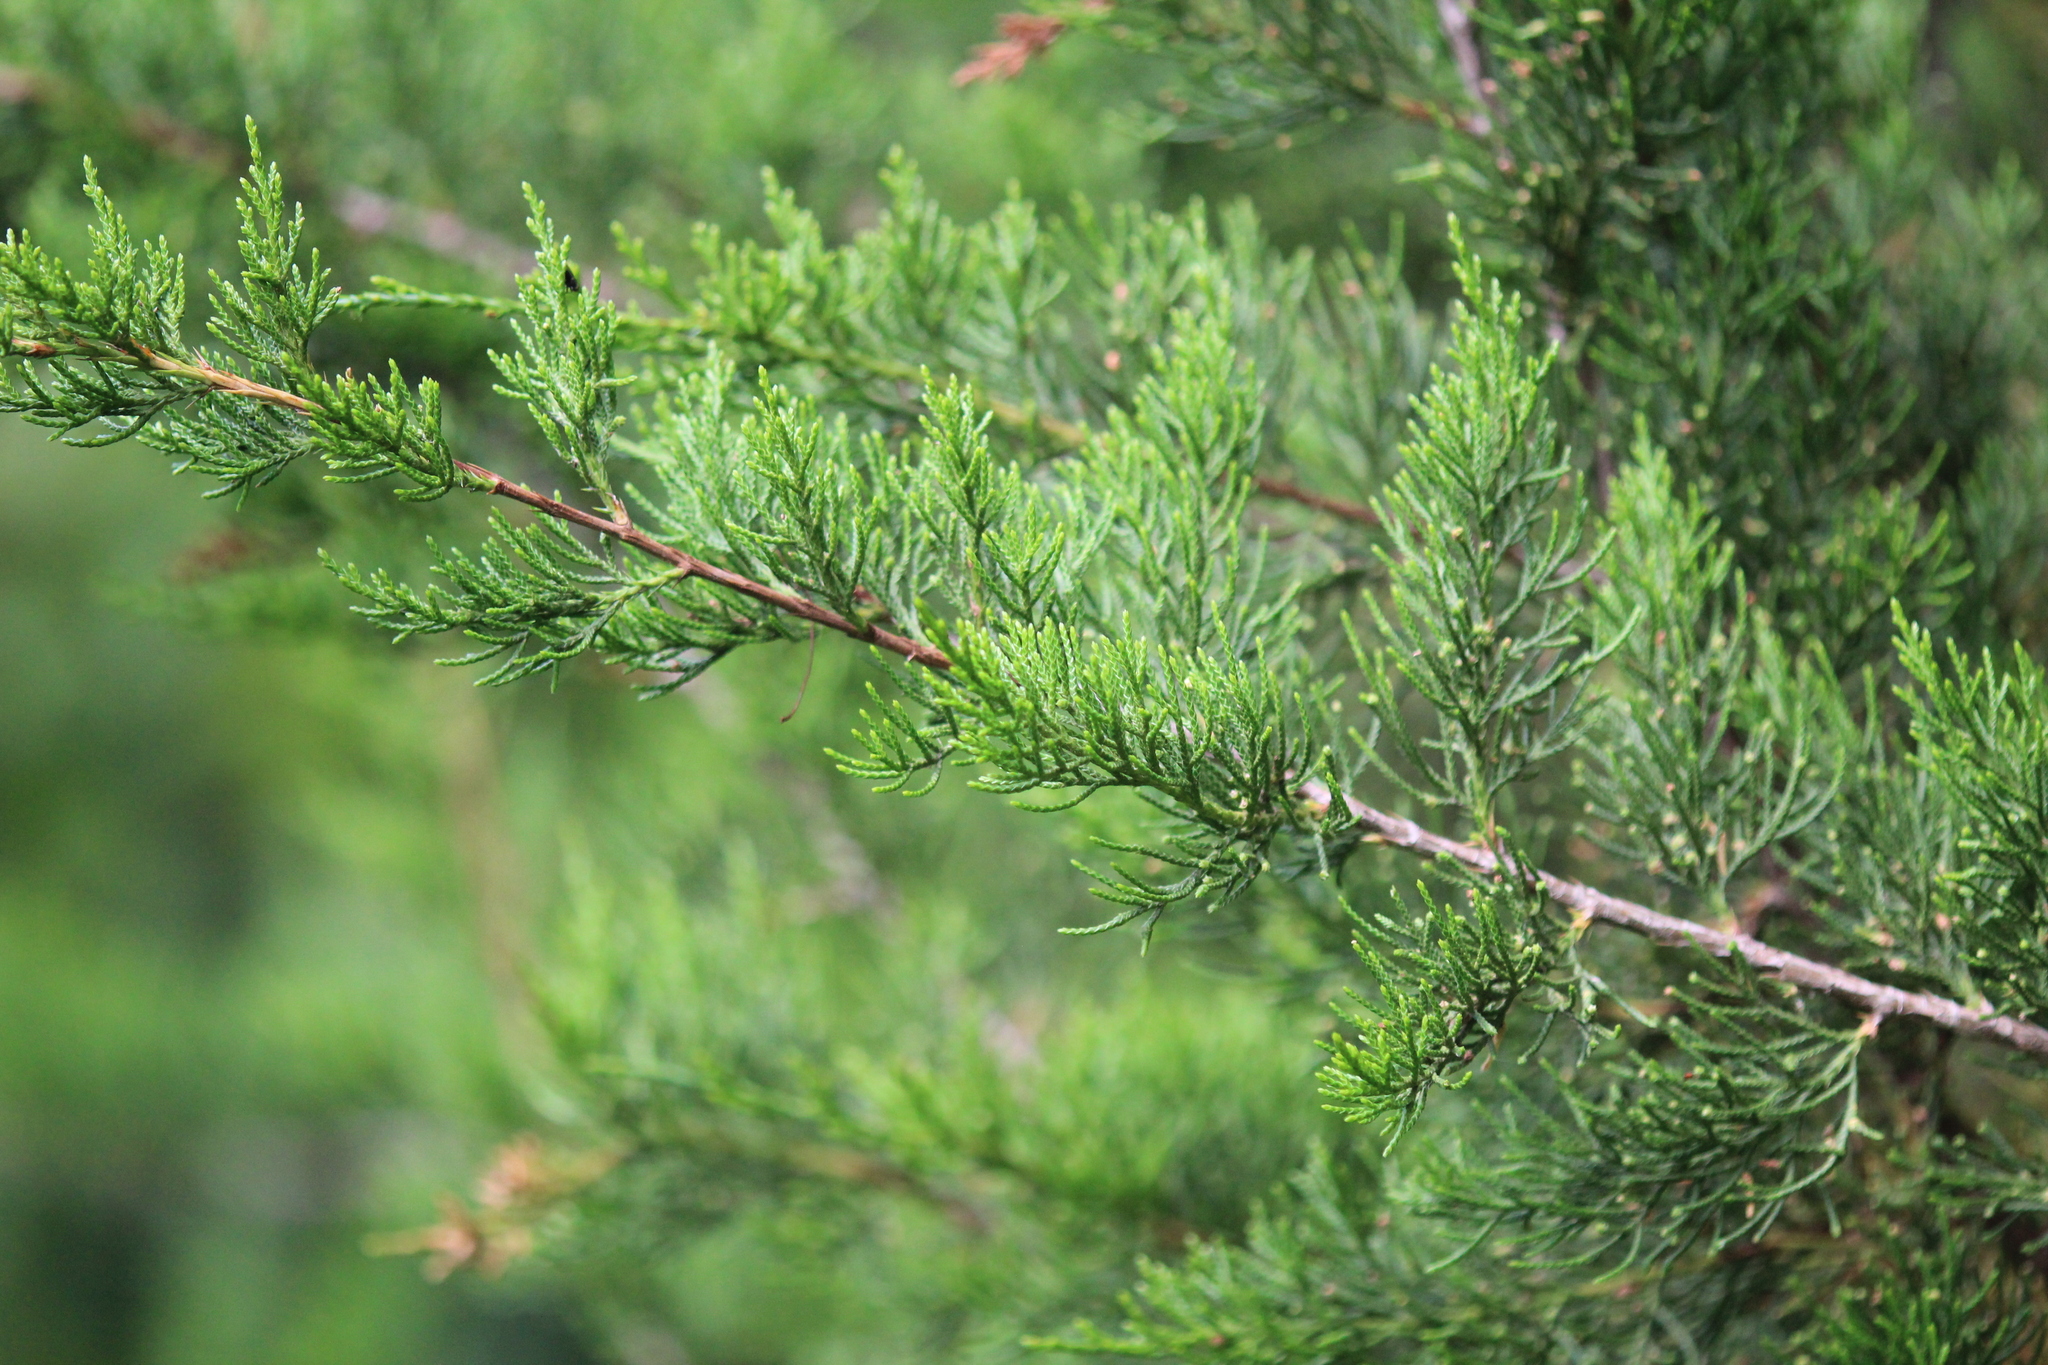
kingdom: Plantae
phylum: Tracheophyta
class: Pinopsida
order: Pinales
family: Cupressaceae
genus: Juniperus
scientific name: Juniperus virginiana
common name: Red juniper
